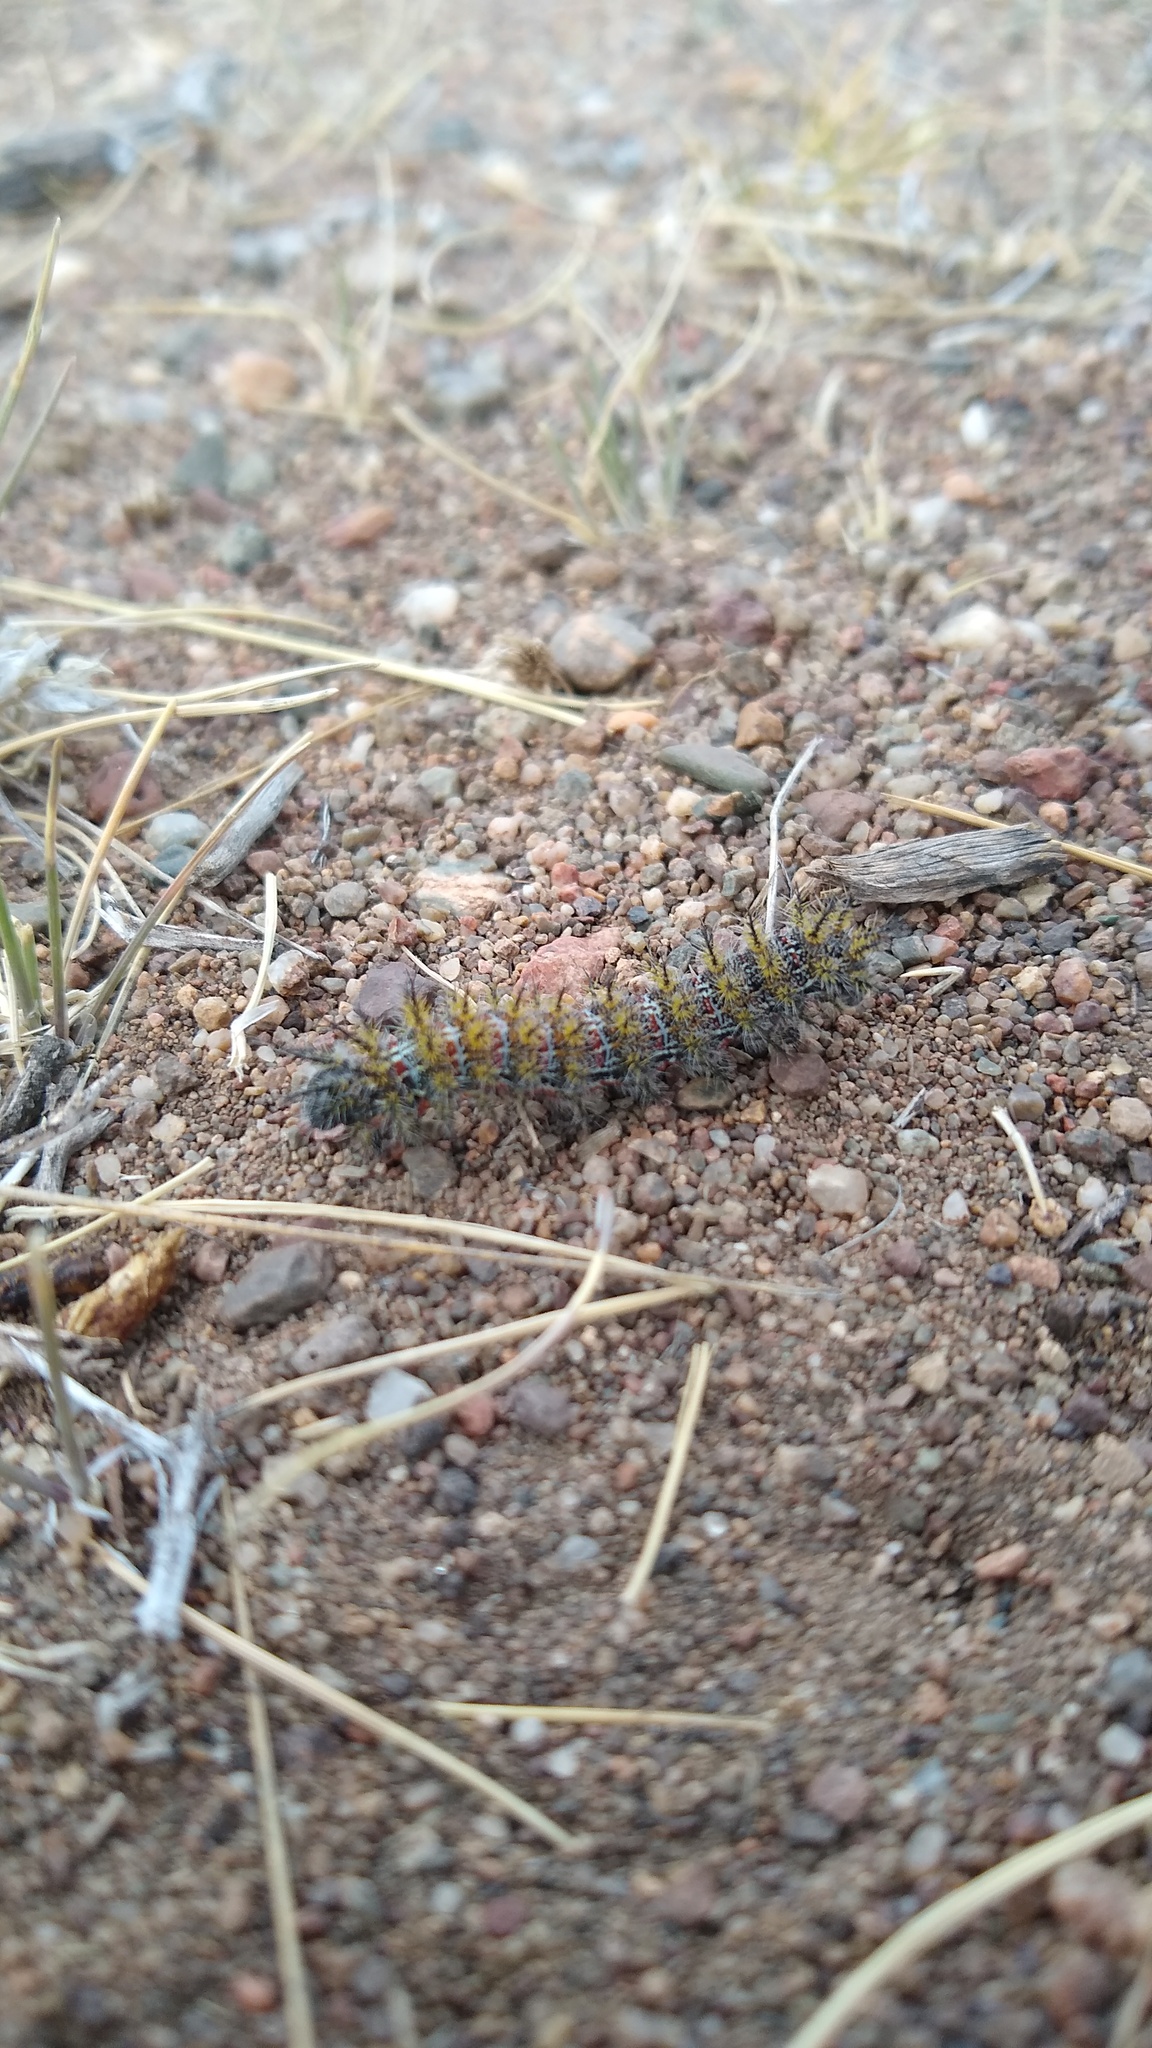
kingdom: Animalia
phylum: Arthropoda
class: Insecta
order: Lepidoptera
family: Saturniidae
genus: Ormiscodes
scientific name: Ormiscodes amphinome
